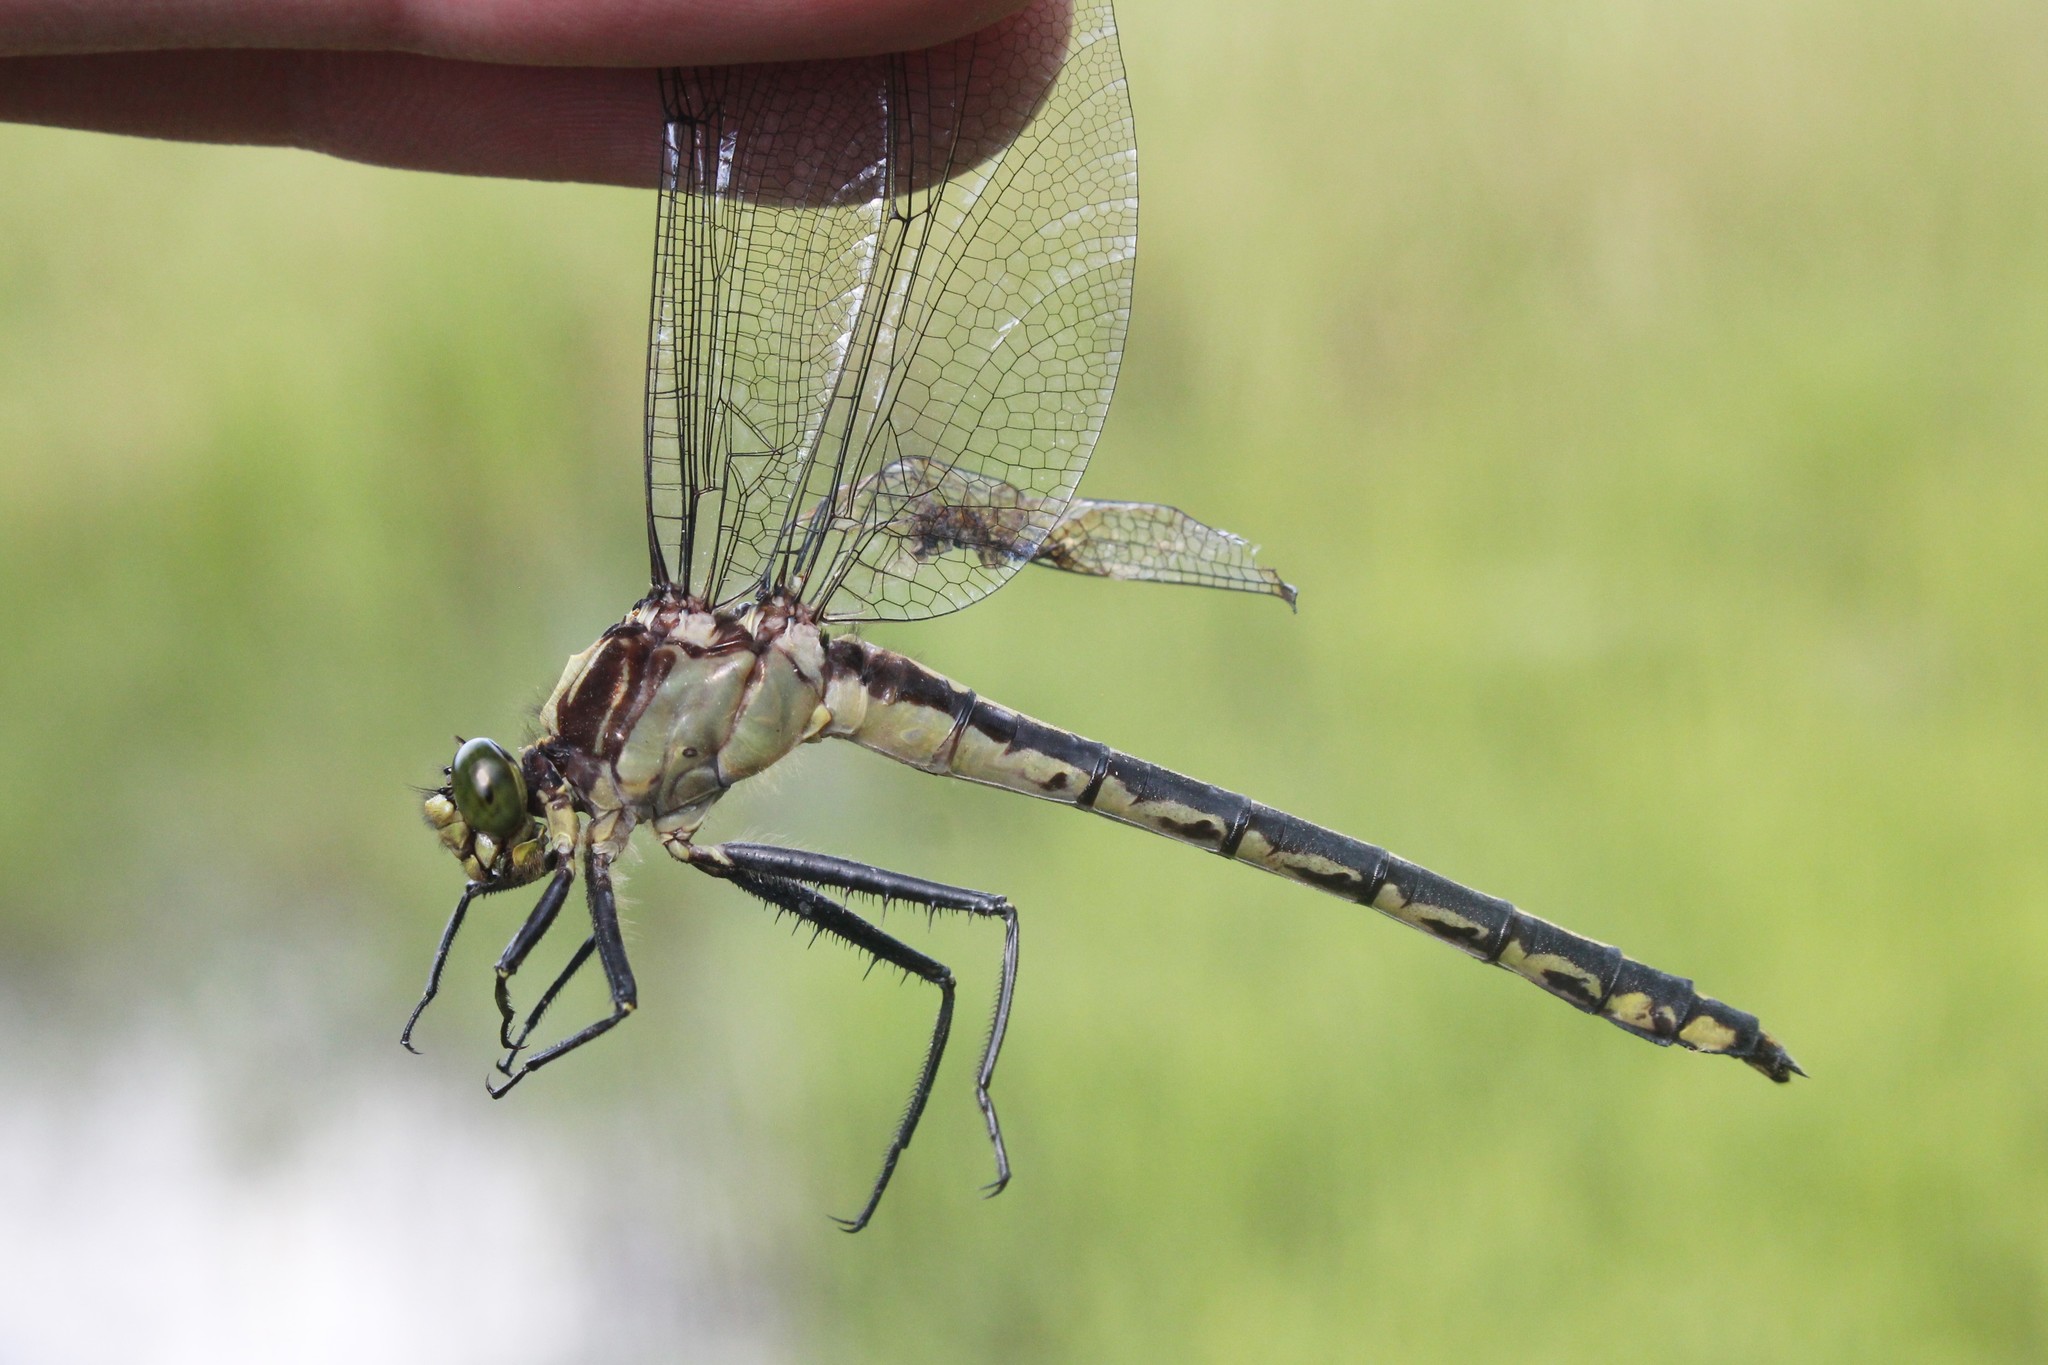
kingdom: Animalia
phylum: Arthropoda
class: Insecta
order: Odonata
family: Gomphidae
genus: Dromogomphus
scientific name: Dromogomphus spinosus
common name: Black-shouldered spinyleg
